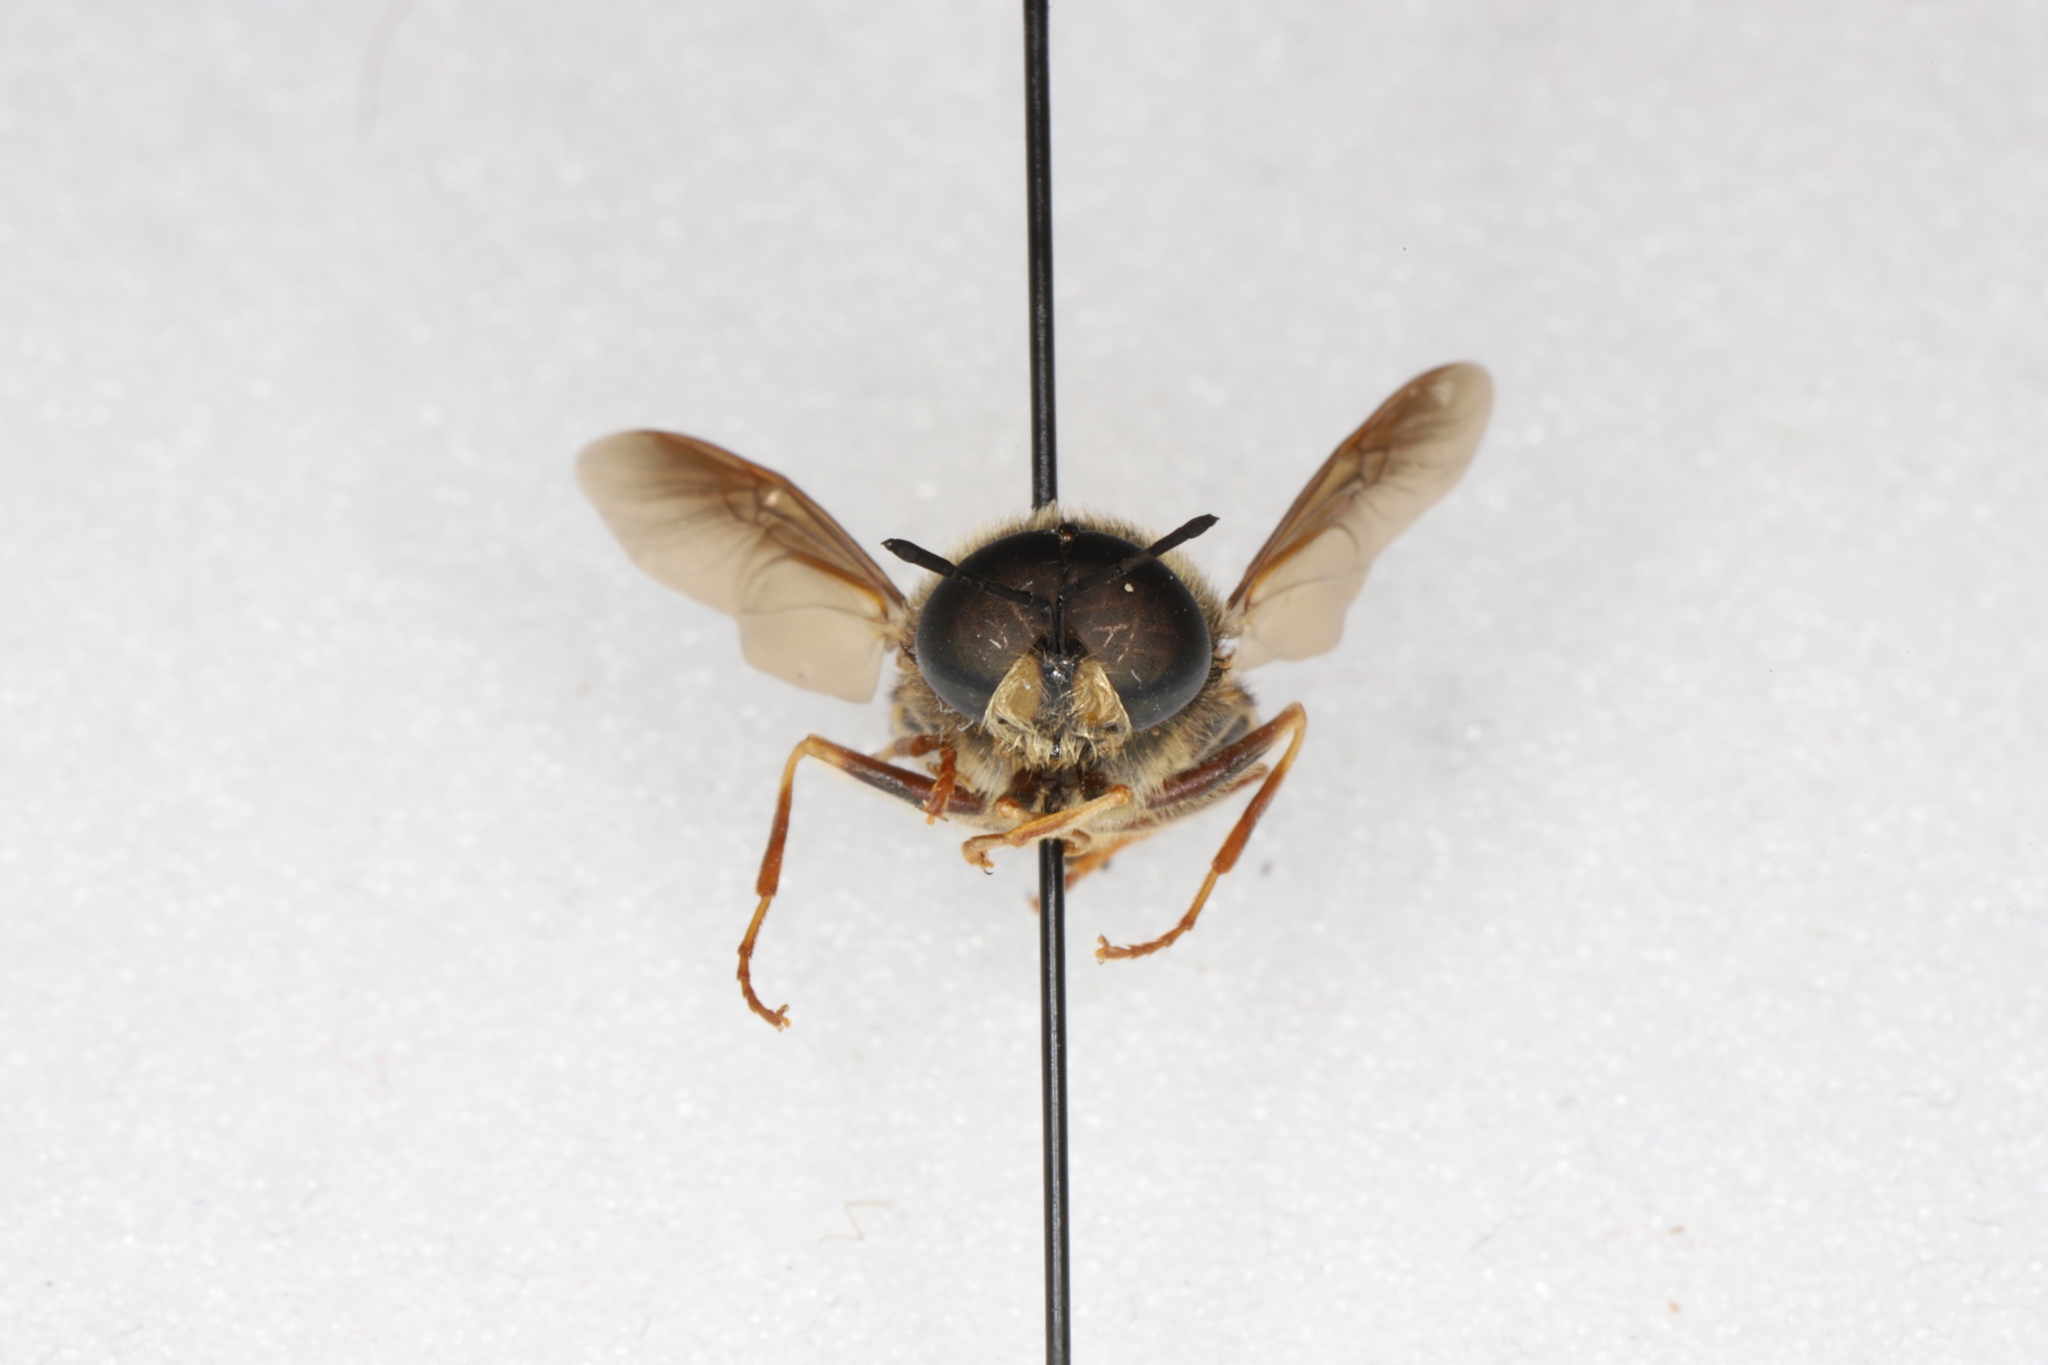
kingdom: Animalia
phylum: Arthropoda
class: Insecta
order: Diptera
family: Stratiomyidae
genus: Stratiomys
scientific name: Stratiomys badia
